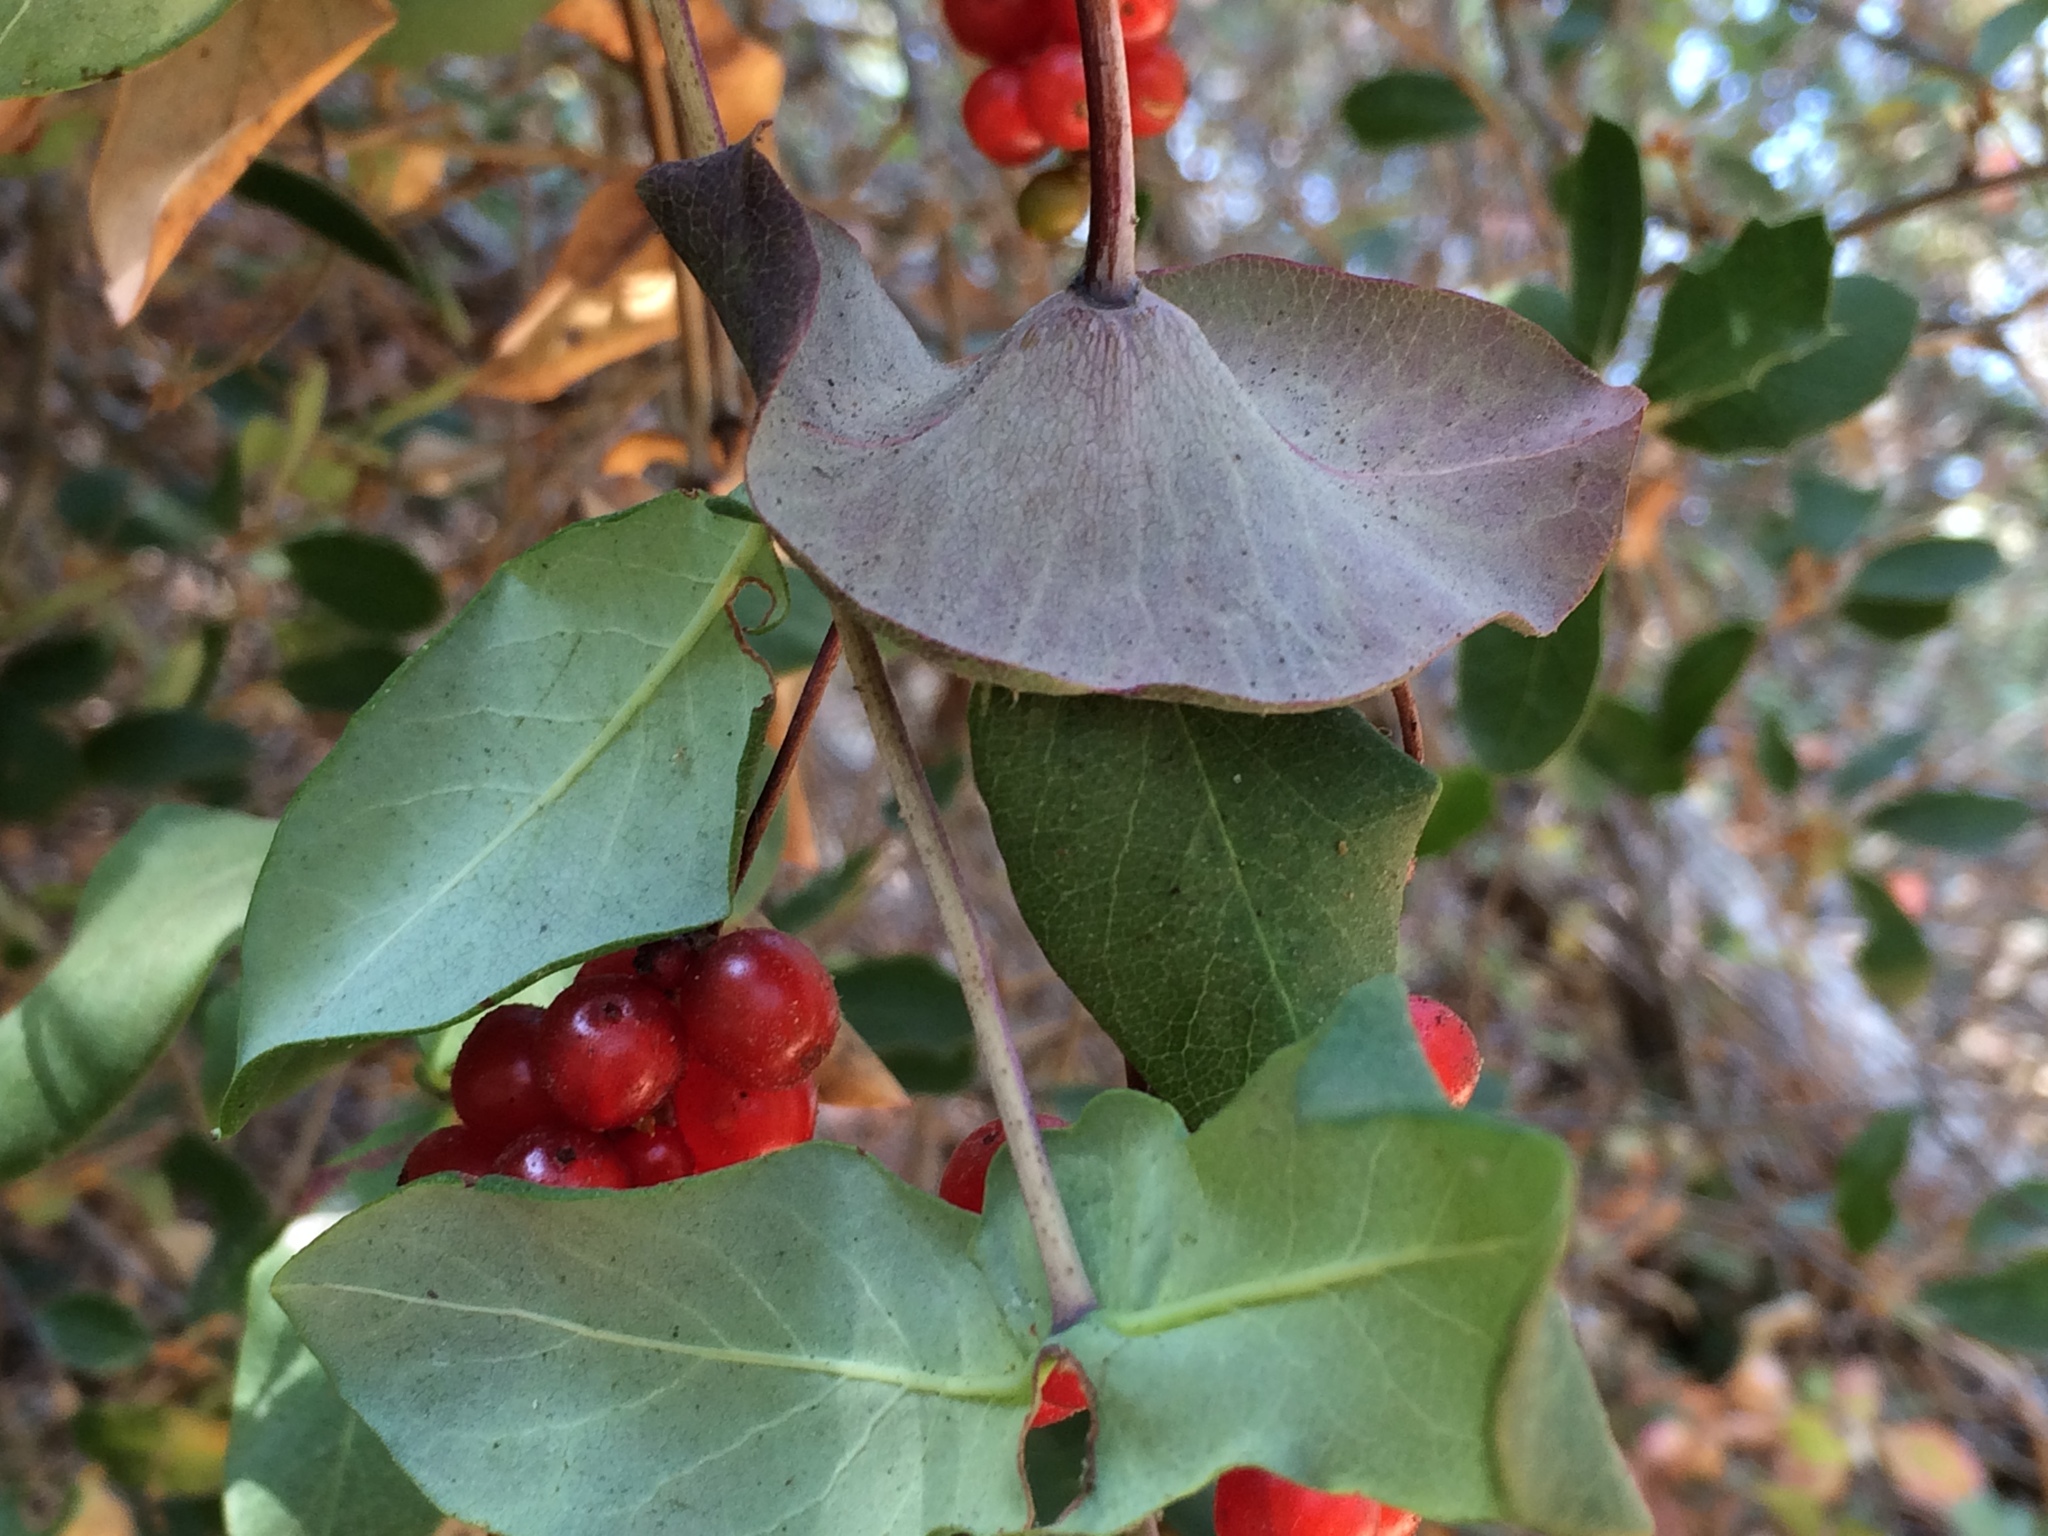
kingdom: Plantae
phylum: Tracheophyta
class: Magnoliopsida
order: Dipsacales
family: Caprifoliaceae
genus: Lonicera
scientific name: Lonicera hispidula
